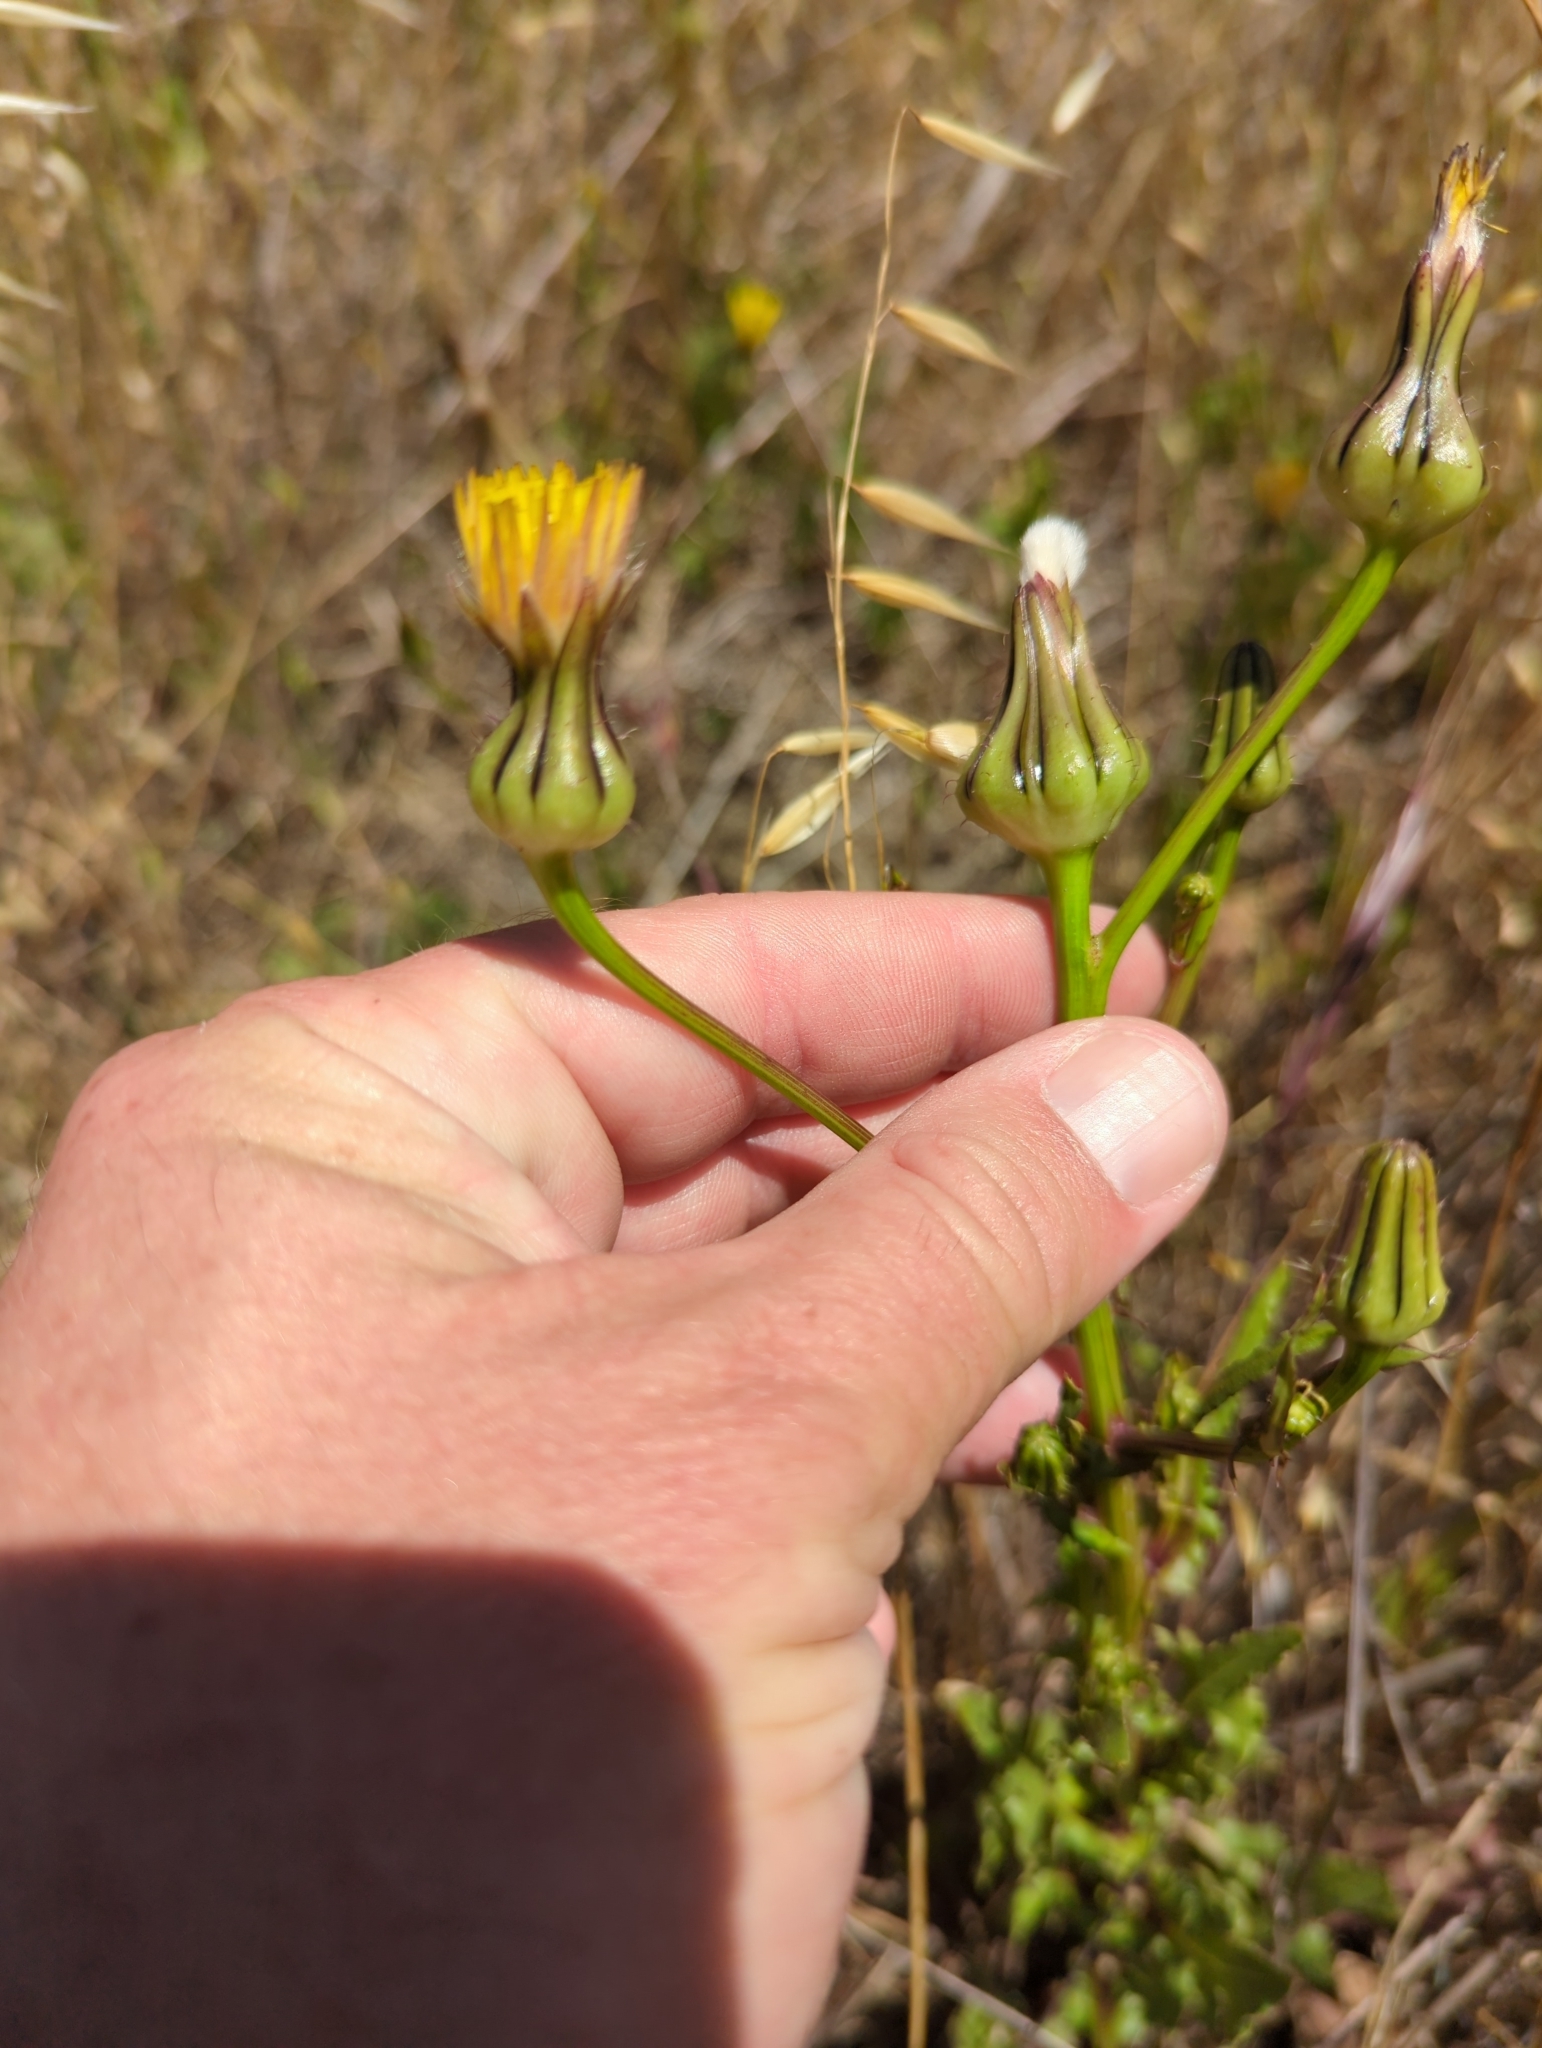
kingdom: Plantae
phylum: Tracheophyta
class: Magnoliopsida
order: Asterales
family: Asteraceae
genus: Urospermum
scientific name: Urospermum picroides
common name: False hawkbit
